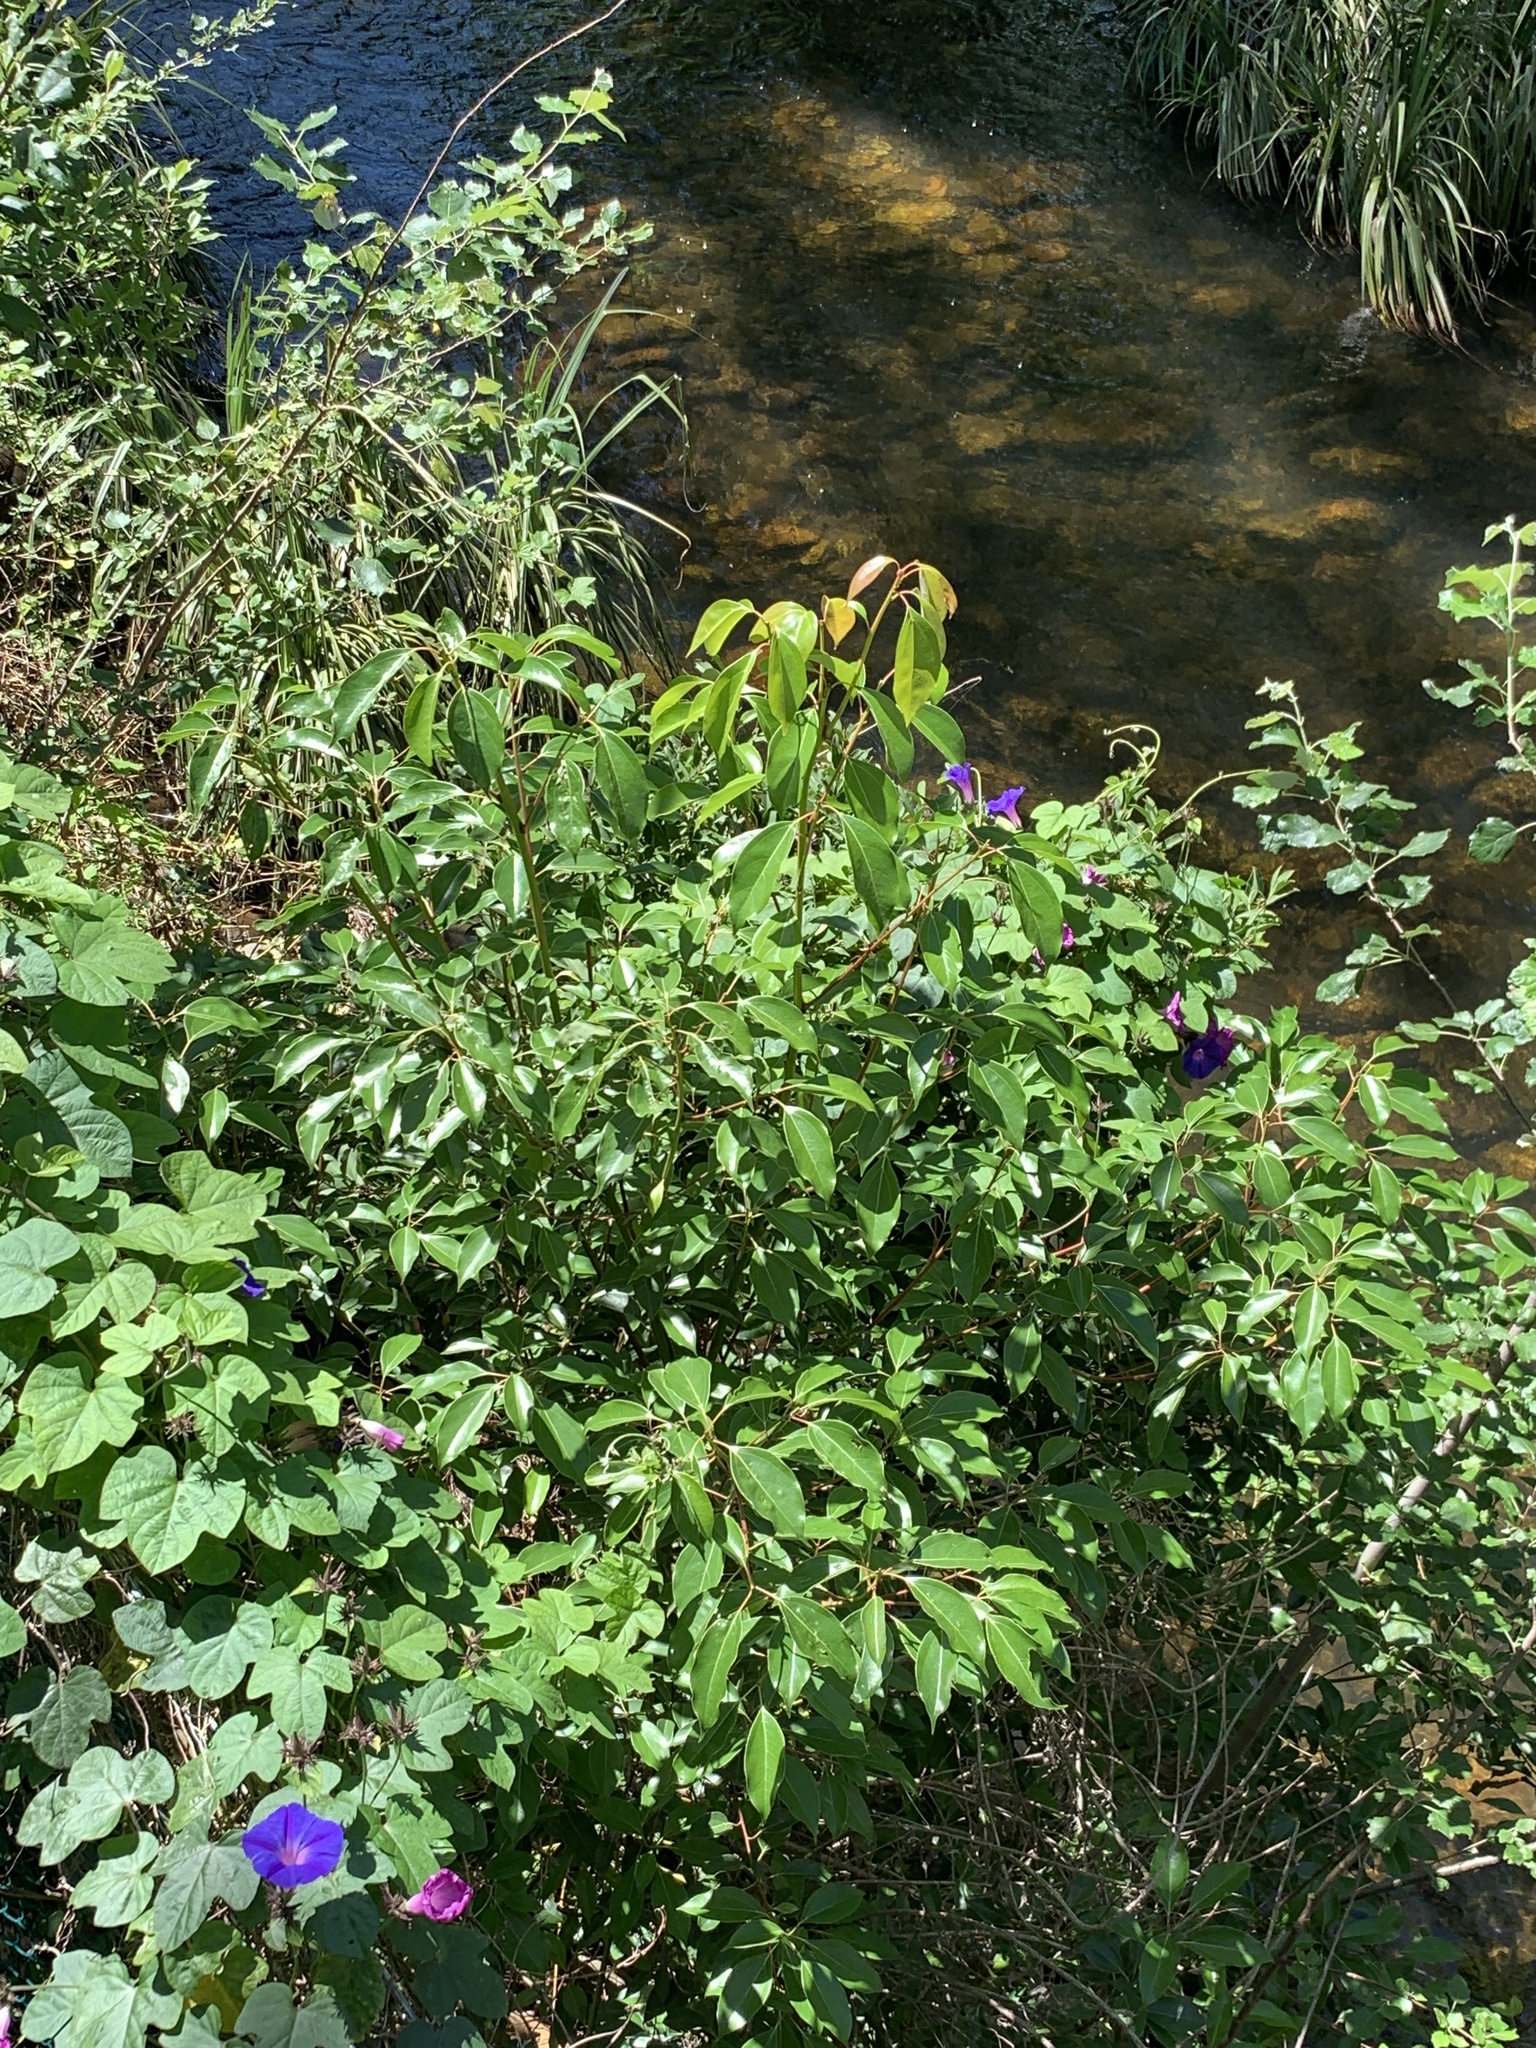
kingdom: Plantae
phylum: Tracheophyta
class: Magnoliopsida
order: Laurales
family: Lauraceae
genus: Cinnamomum
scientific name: Cinnamomum camphora
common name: Camphortree
